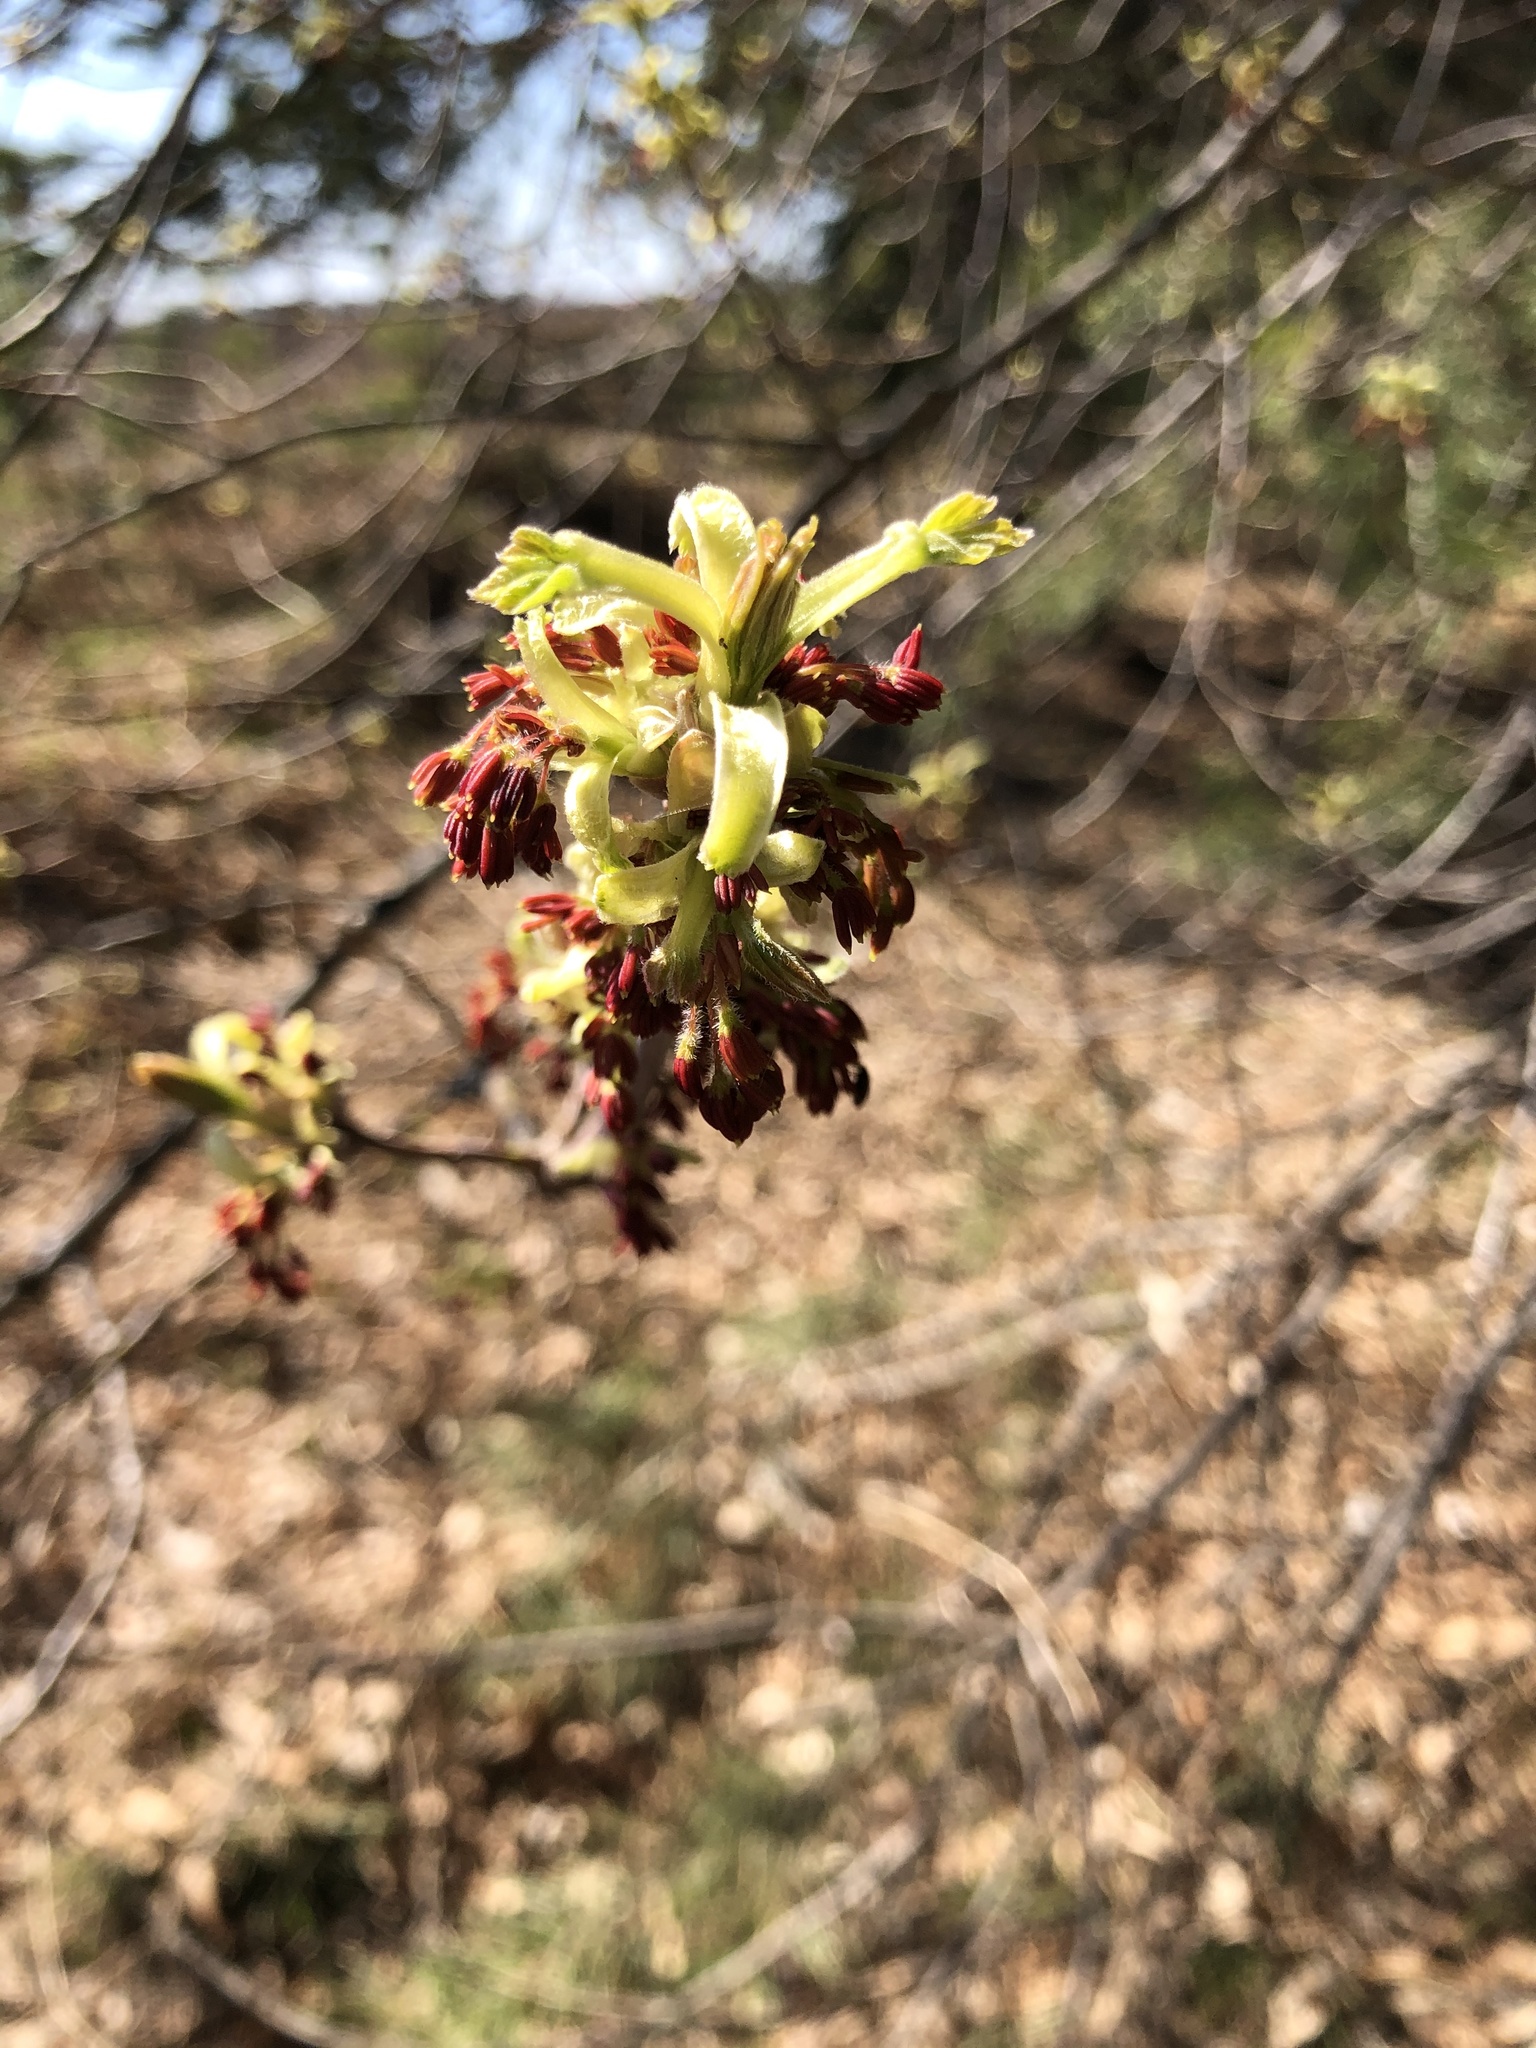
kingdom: Plantae
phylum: Tracheophyta
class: Magnoliopsida
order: Sapindales
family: Sapindaceae
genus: Acer
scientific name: Acer negundo
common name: Ashleaf maple
